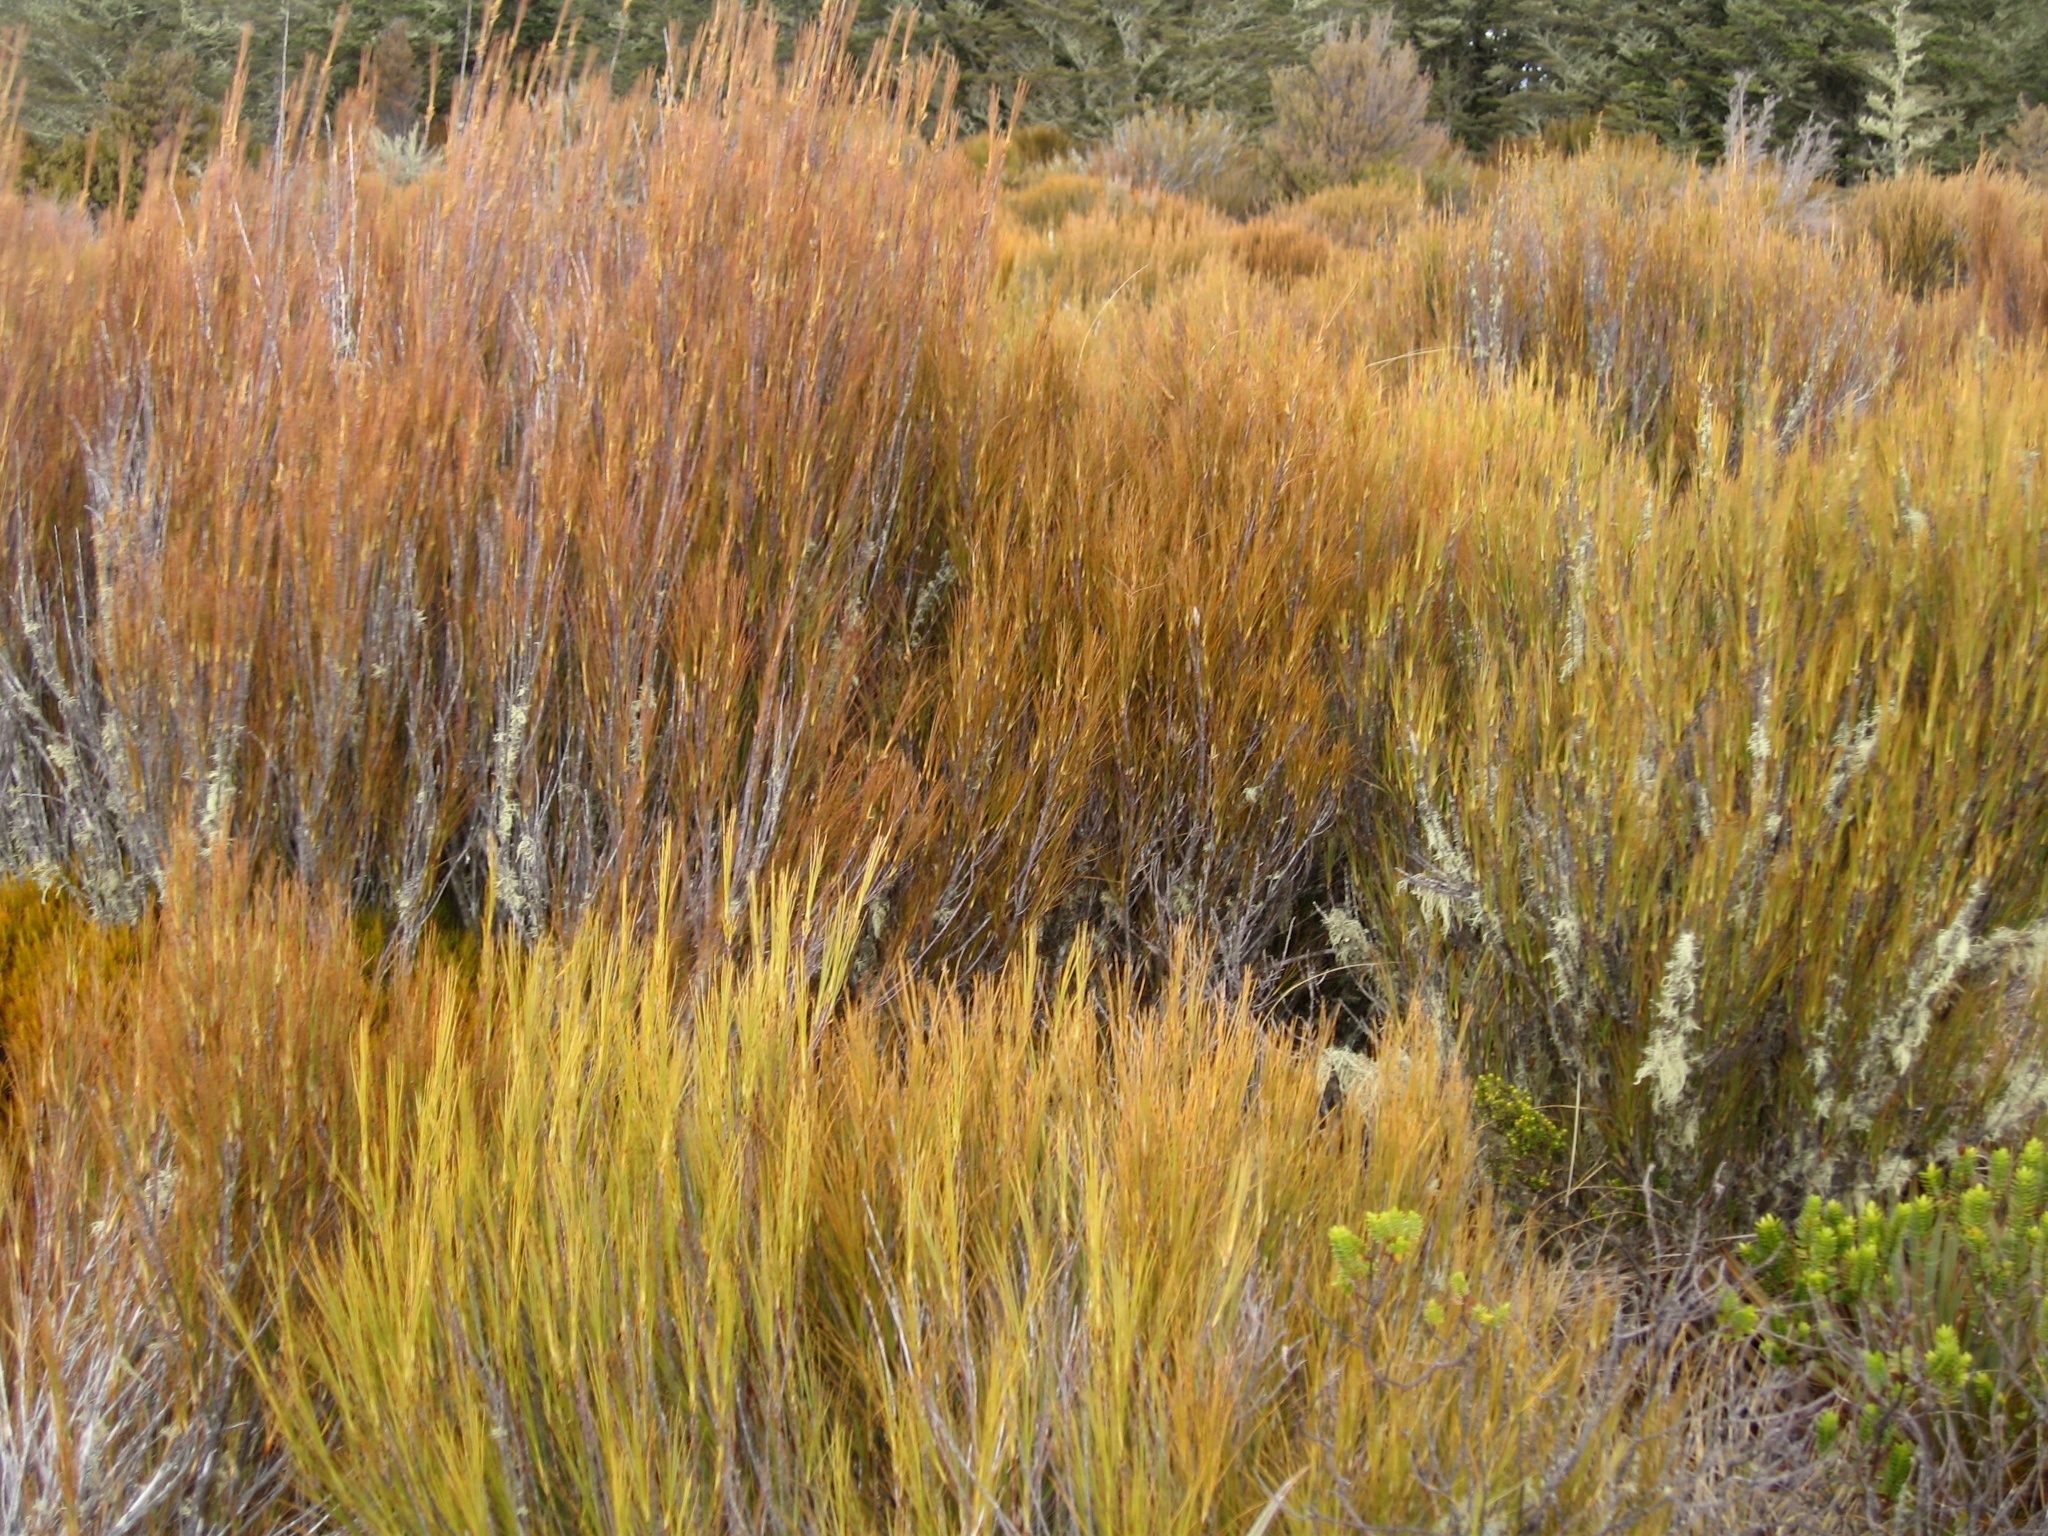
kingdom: Plantae
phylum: Tracheophyta
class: Magnoliopsida
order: Ericales
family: Ericaceae
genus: Dracophyllum
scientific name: Dracophyllum longifolium
